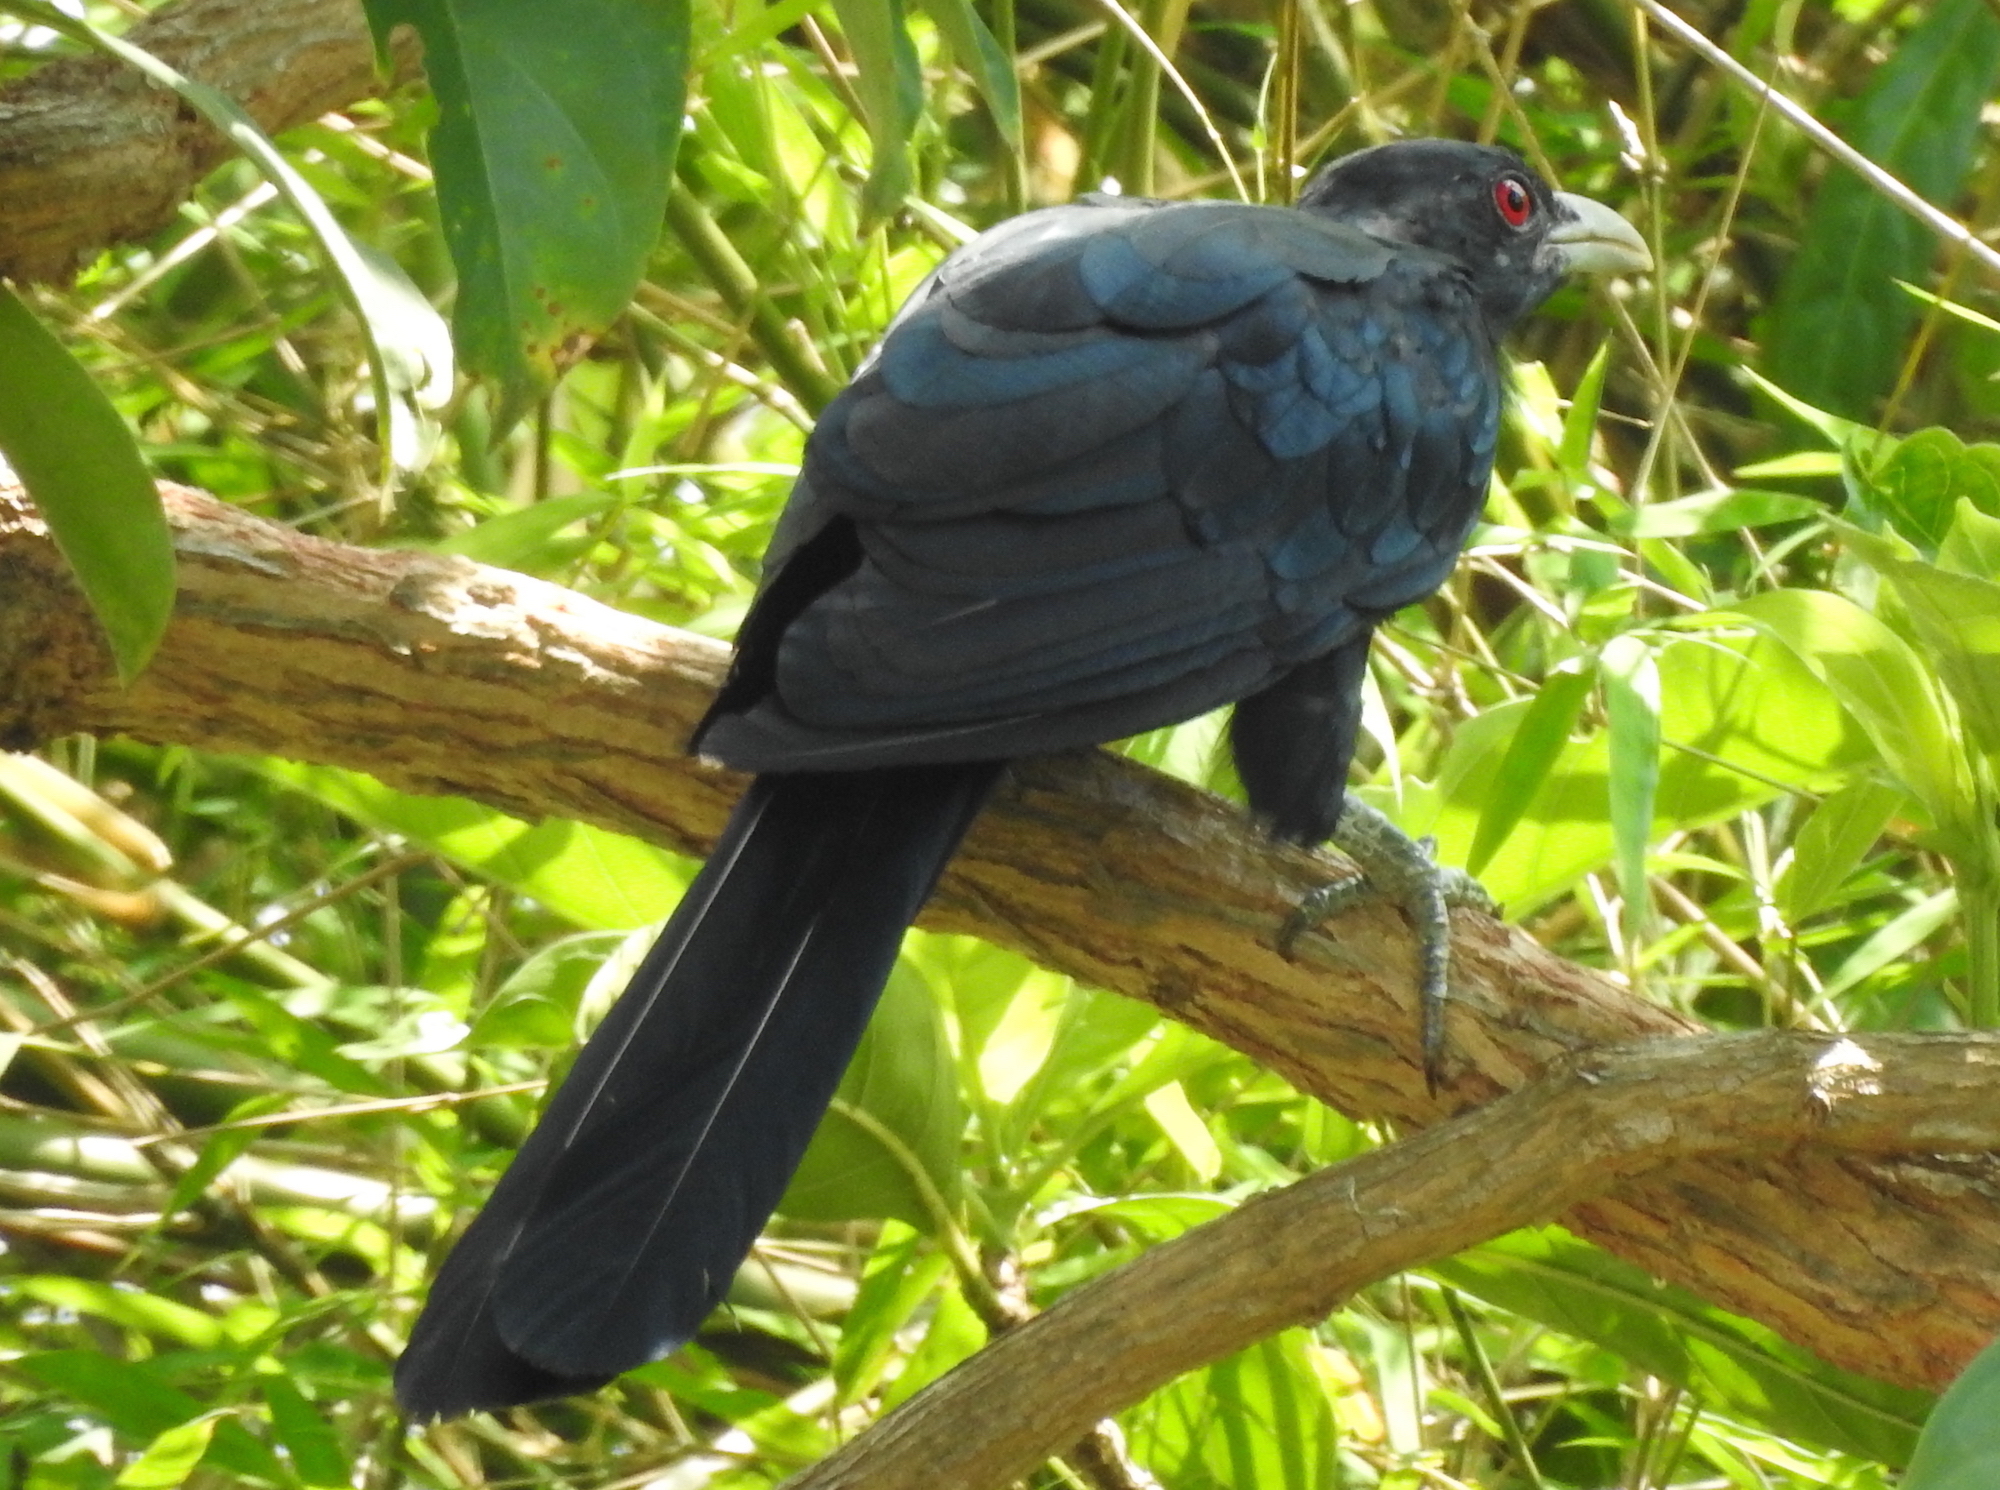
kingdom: Animalia
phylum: Chordata
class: Aves
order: Cuculiformes
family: Cuculidae
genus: Eudynamys
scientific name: Eudynamys scolopaceus
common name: Asian koel
